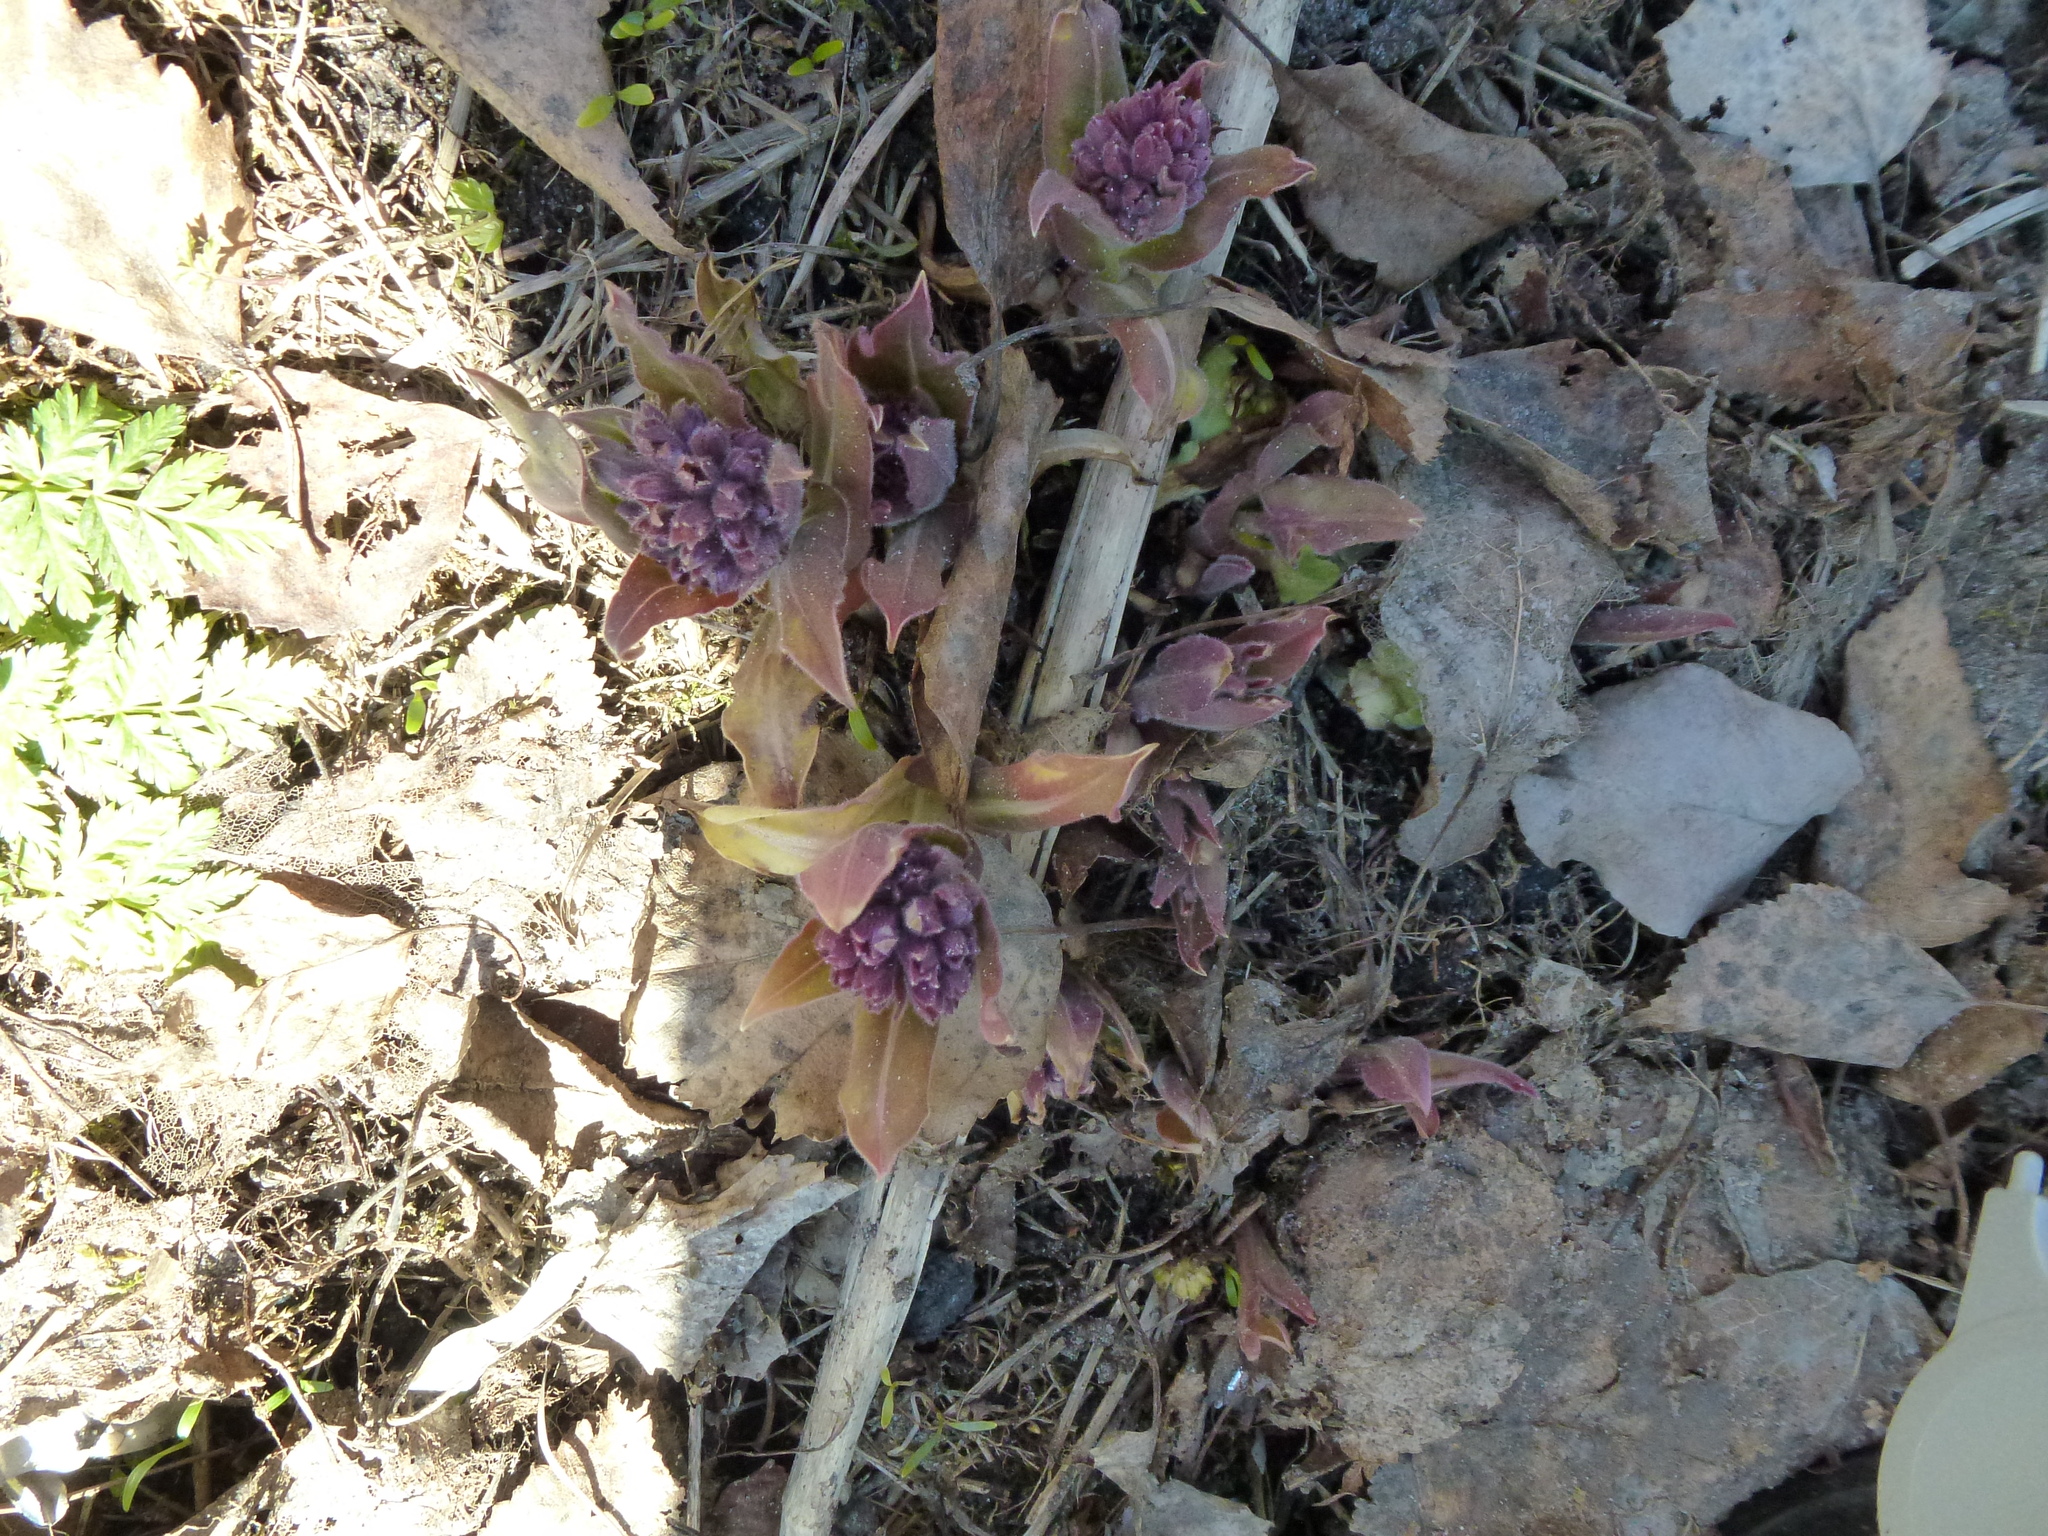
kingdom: Plantae
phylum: Tracheophyta
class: Magnoliopsida
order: Boraginales
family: Boraginaceae
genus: Pulmonaria
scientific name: Pulmonaria mollis
